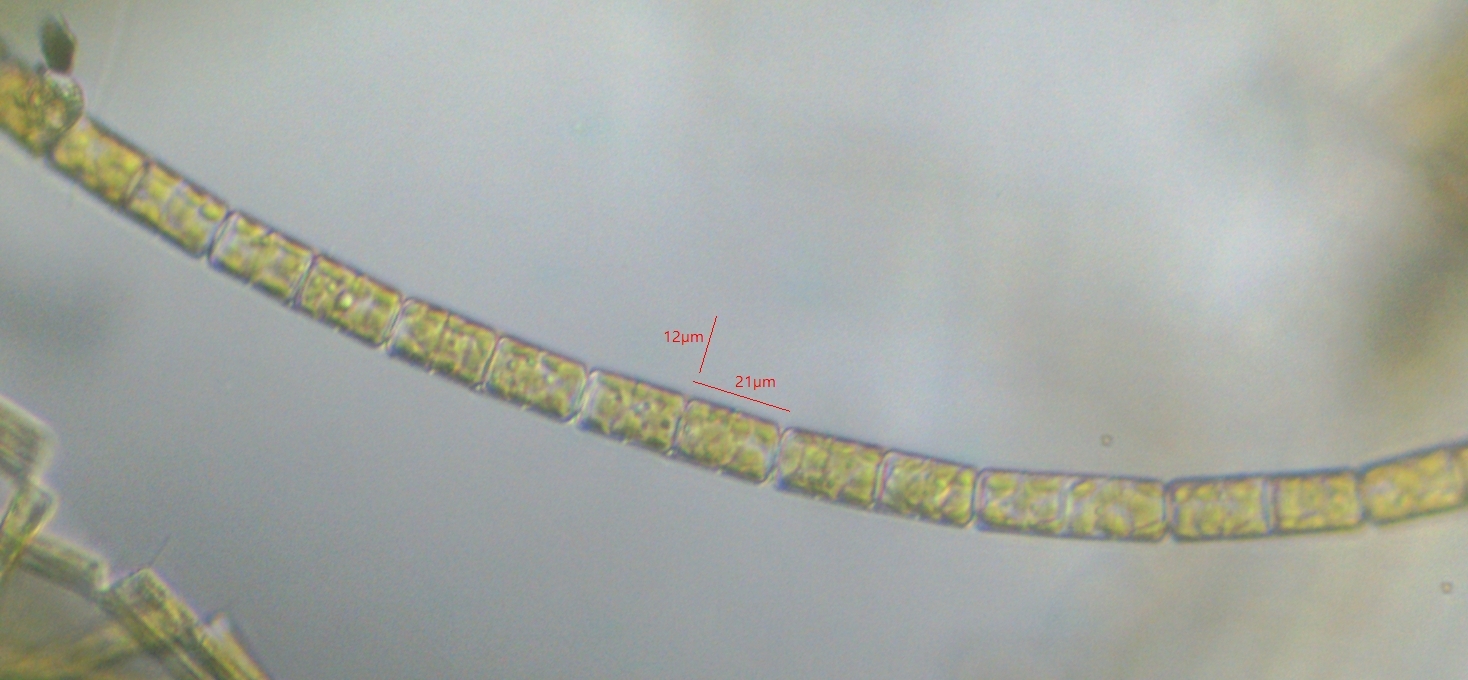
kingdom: Chromista
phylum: Ochrophyta
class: Bacillariophyceae
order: Melosirales
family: Melosiraceae
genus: Melosira
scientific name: Melosira varians
